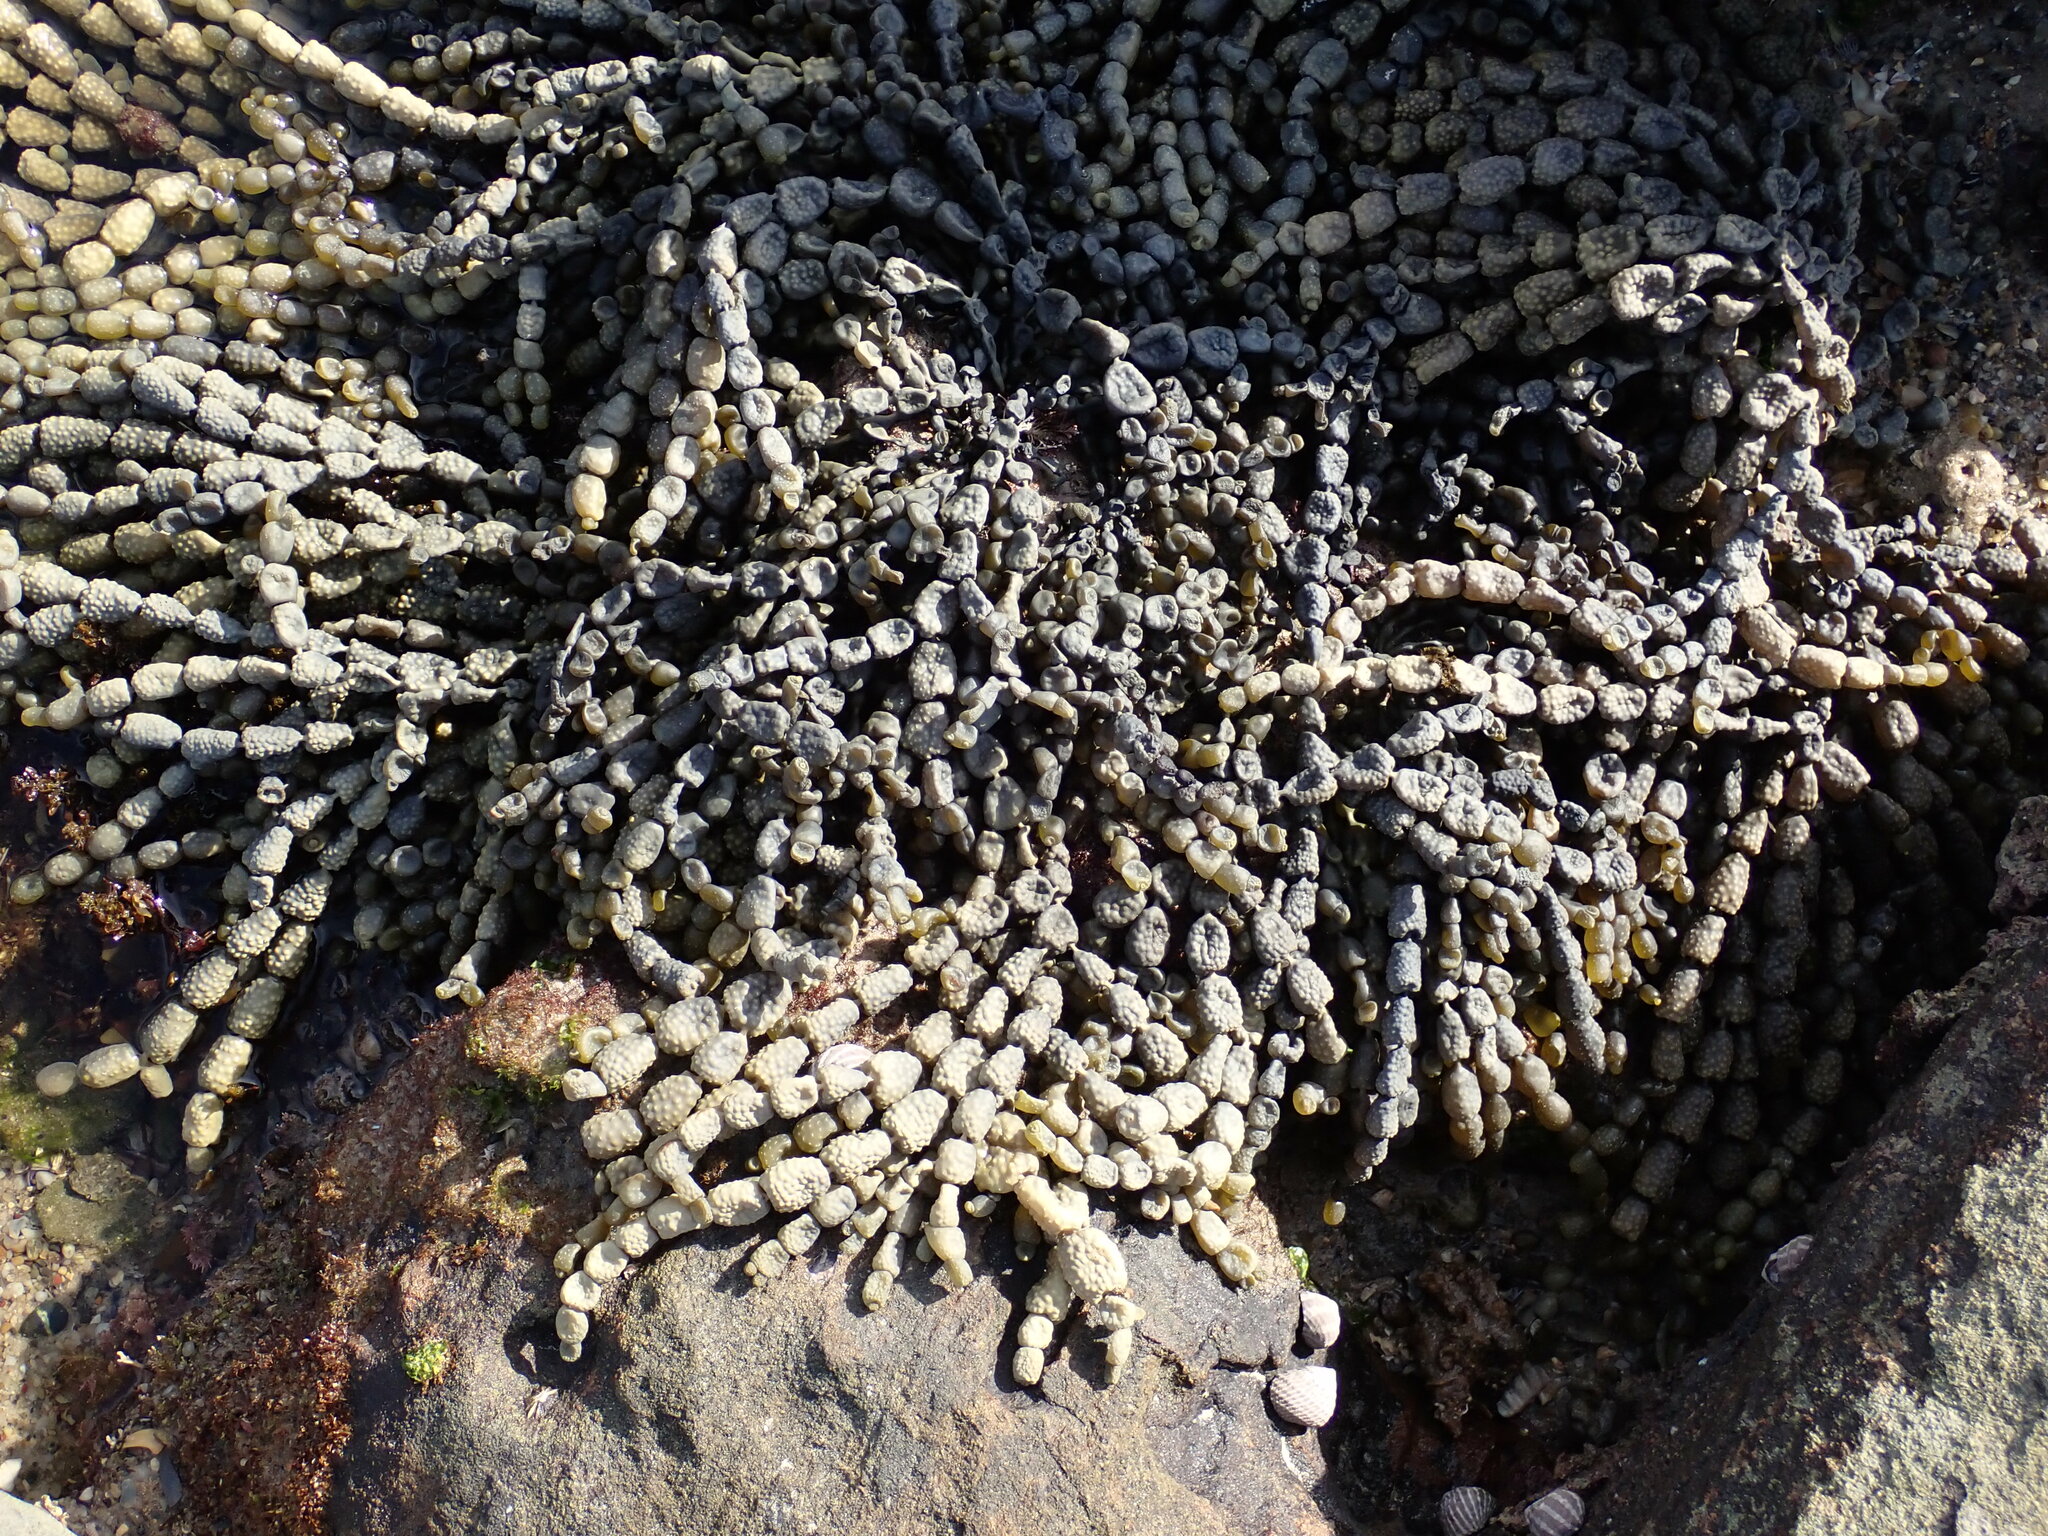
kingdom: Chromista
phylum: Ochrophyta
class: Phaeophyceae
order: Fucales
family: Hormosiraceae
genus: Hormosira
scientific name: Hormosira banksii
